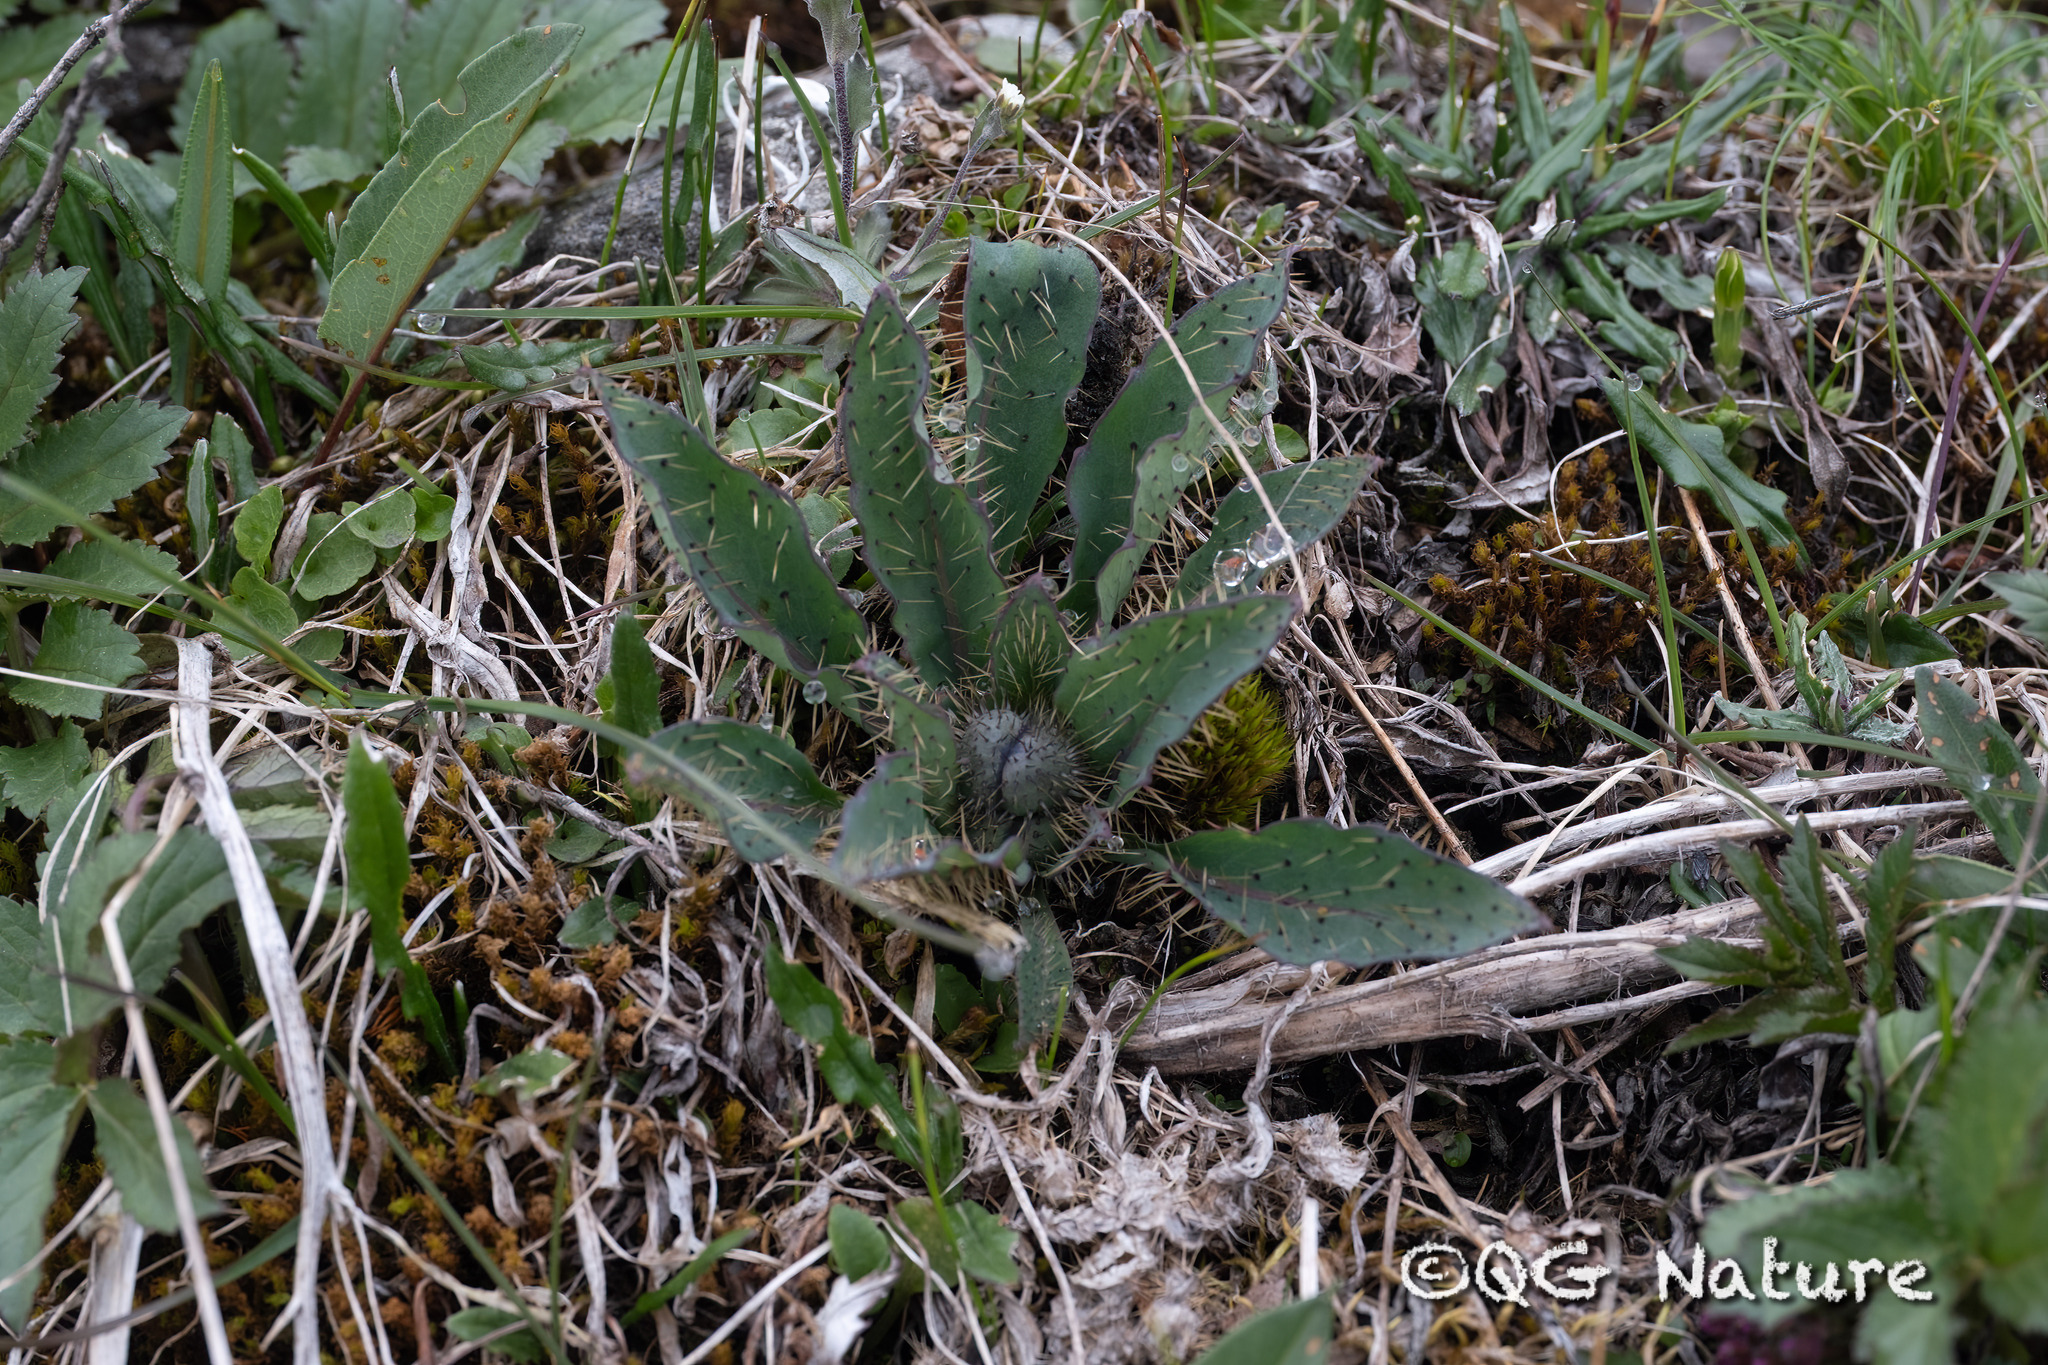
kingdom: Plantae
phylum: Tracheophyta
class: Magnoliopsida
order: Ranunculales
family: Papaveraceae
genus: Meconopsis
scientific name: Meconopsis balangensis
